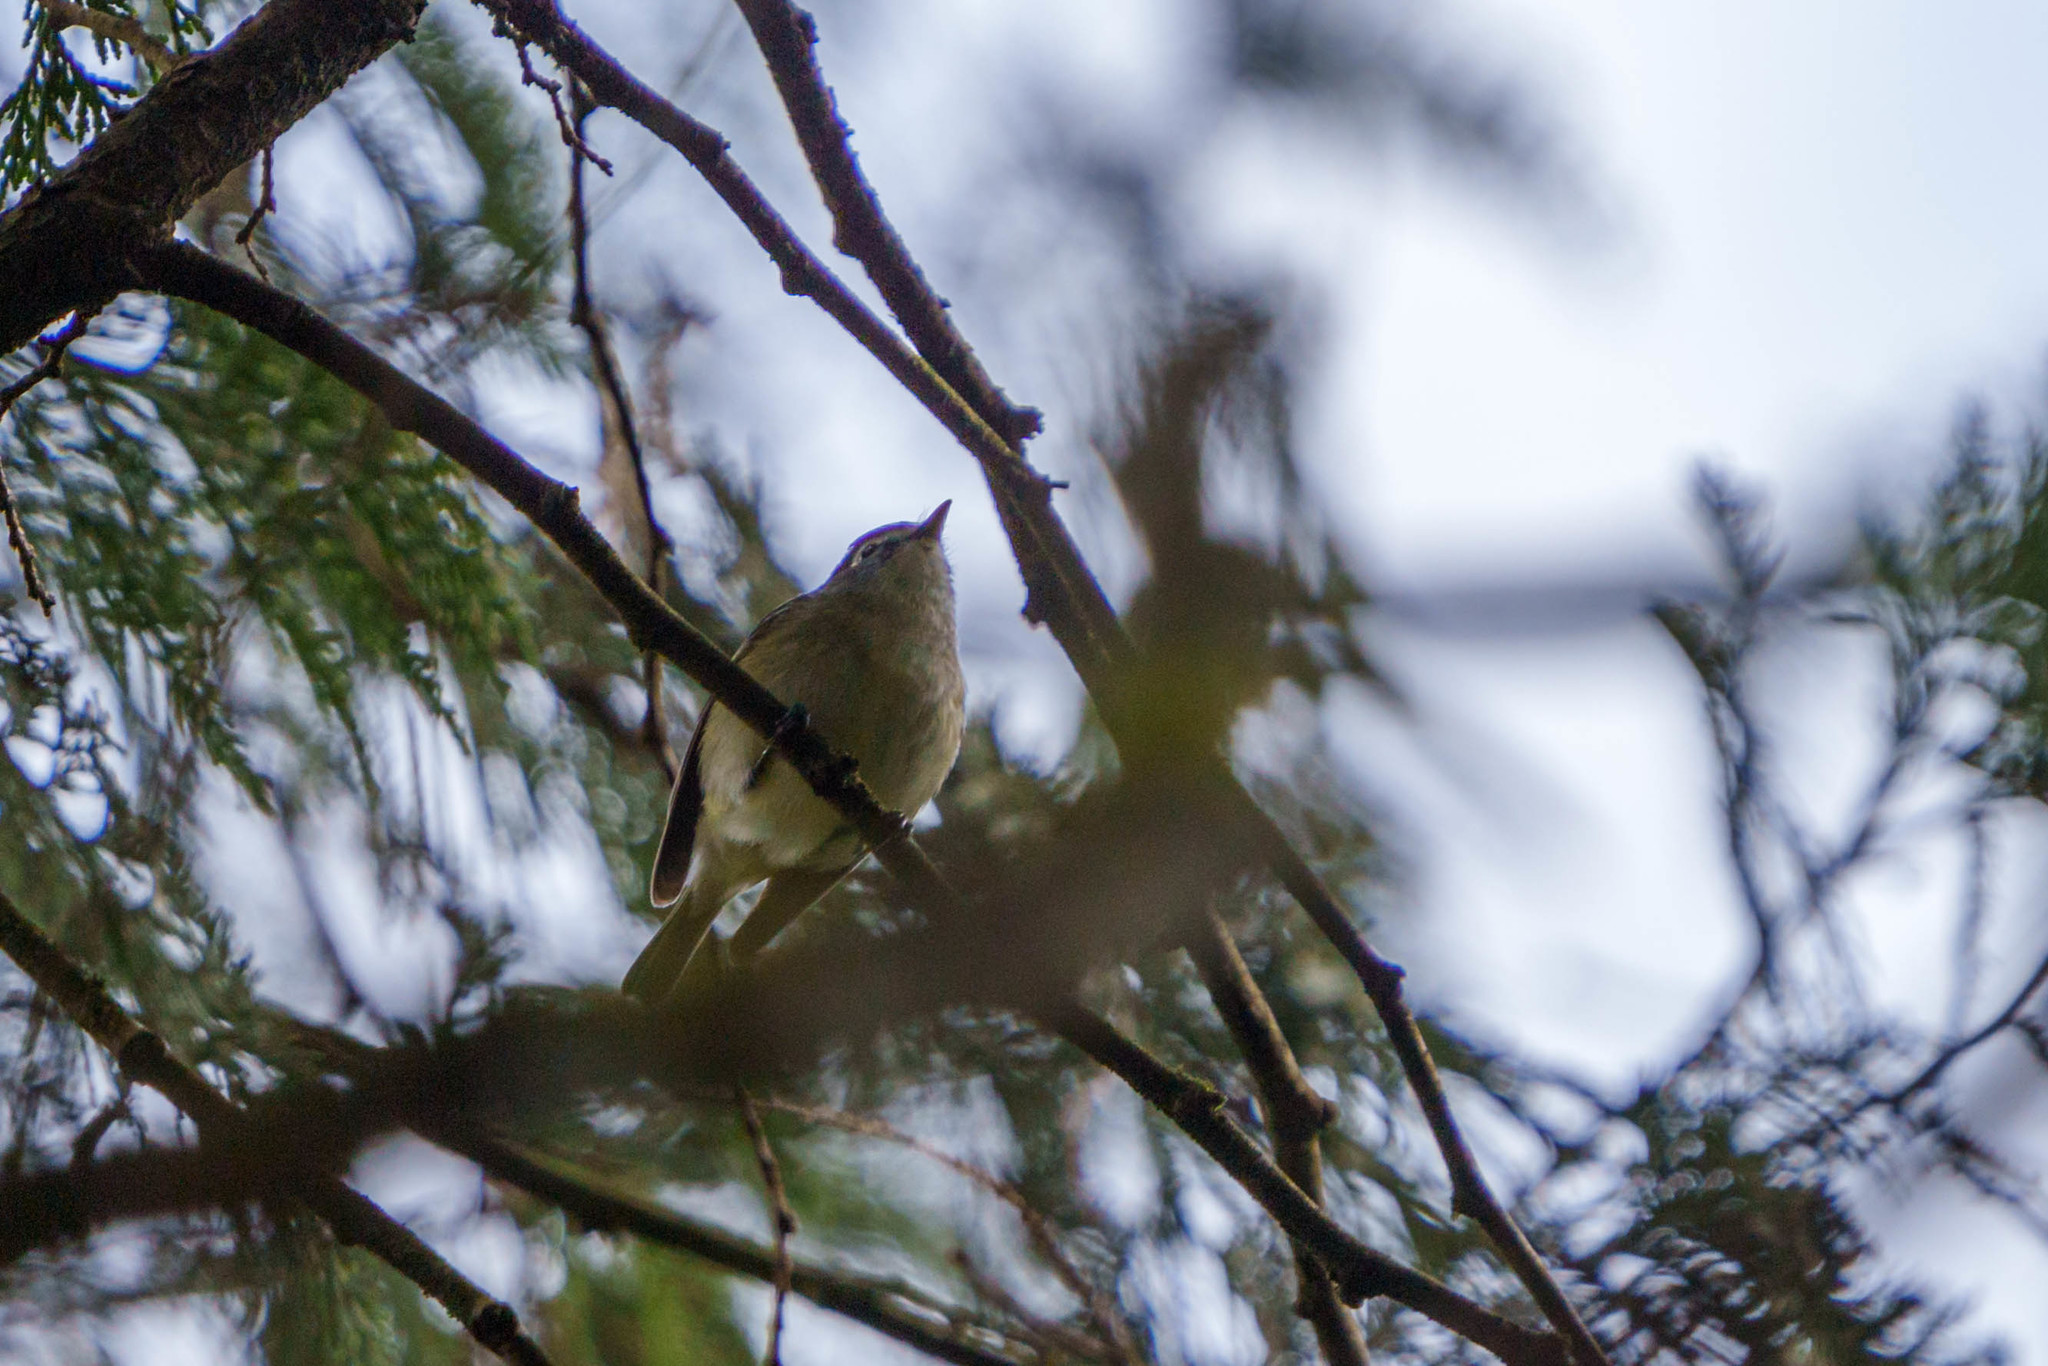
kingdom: Animalia
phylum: Chordata
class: Aves
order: Passeriformes
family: Vireonidae
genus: Vireo
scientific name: Vireo cassinii
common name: Cassin's vireo
